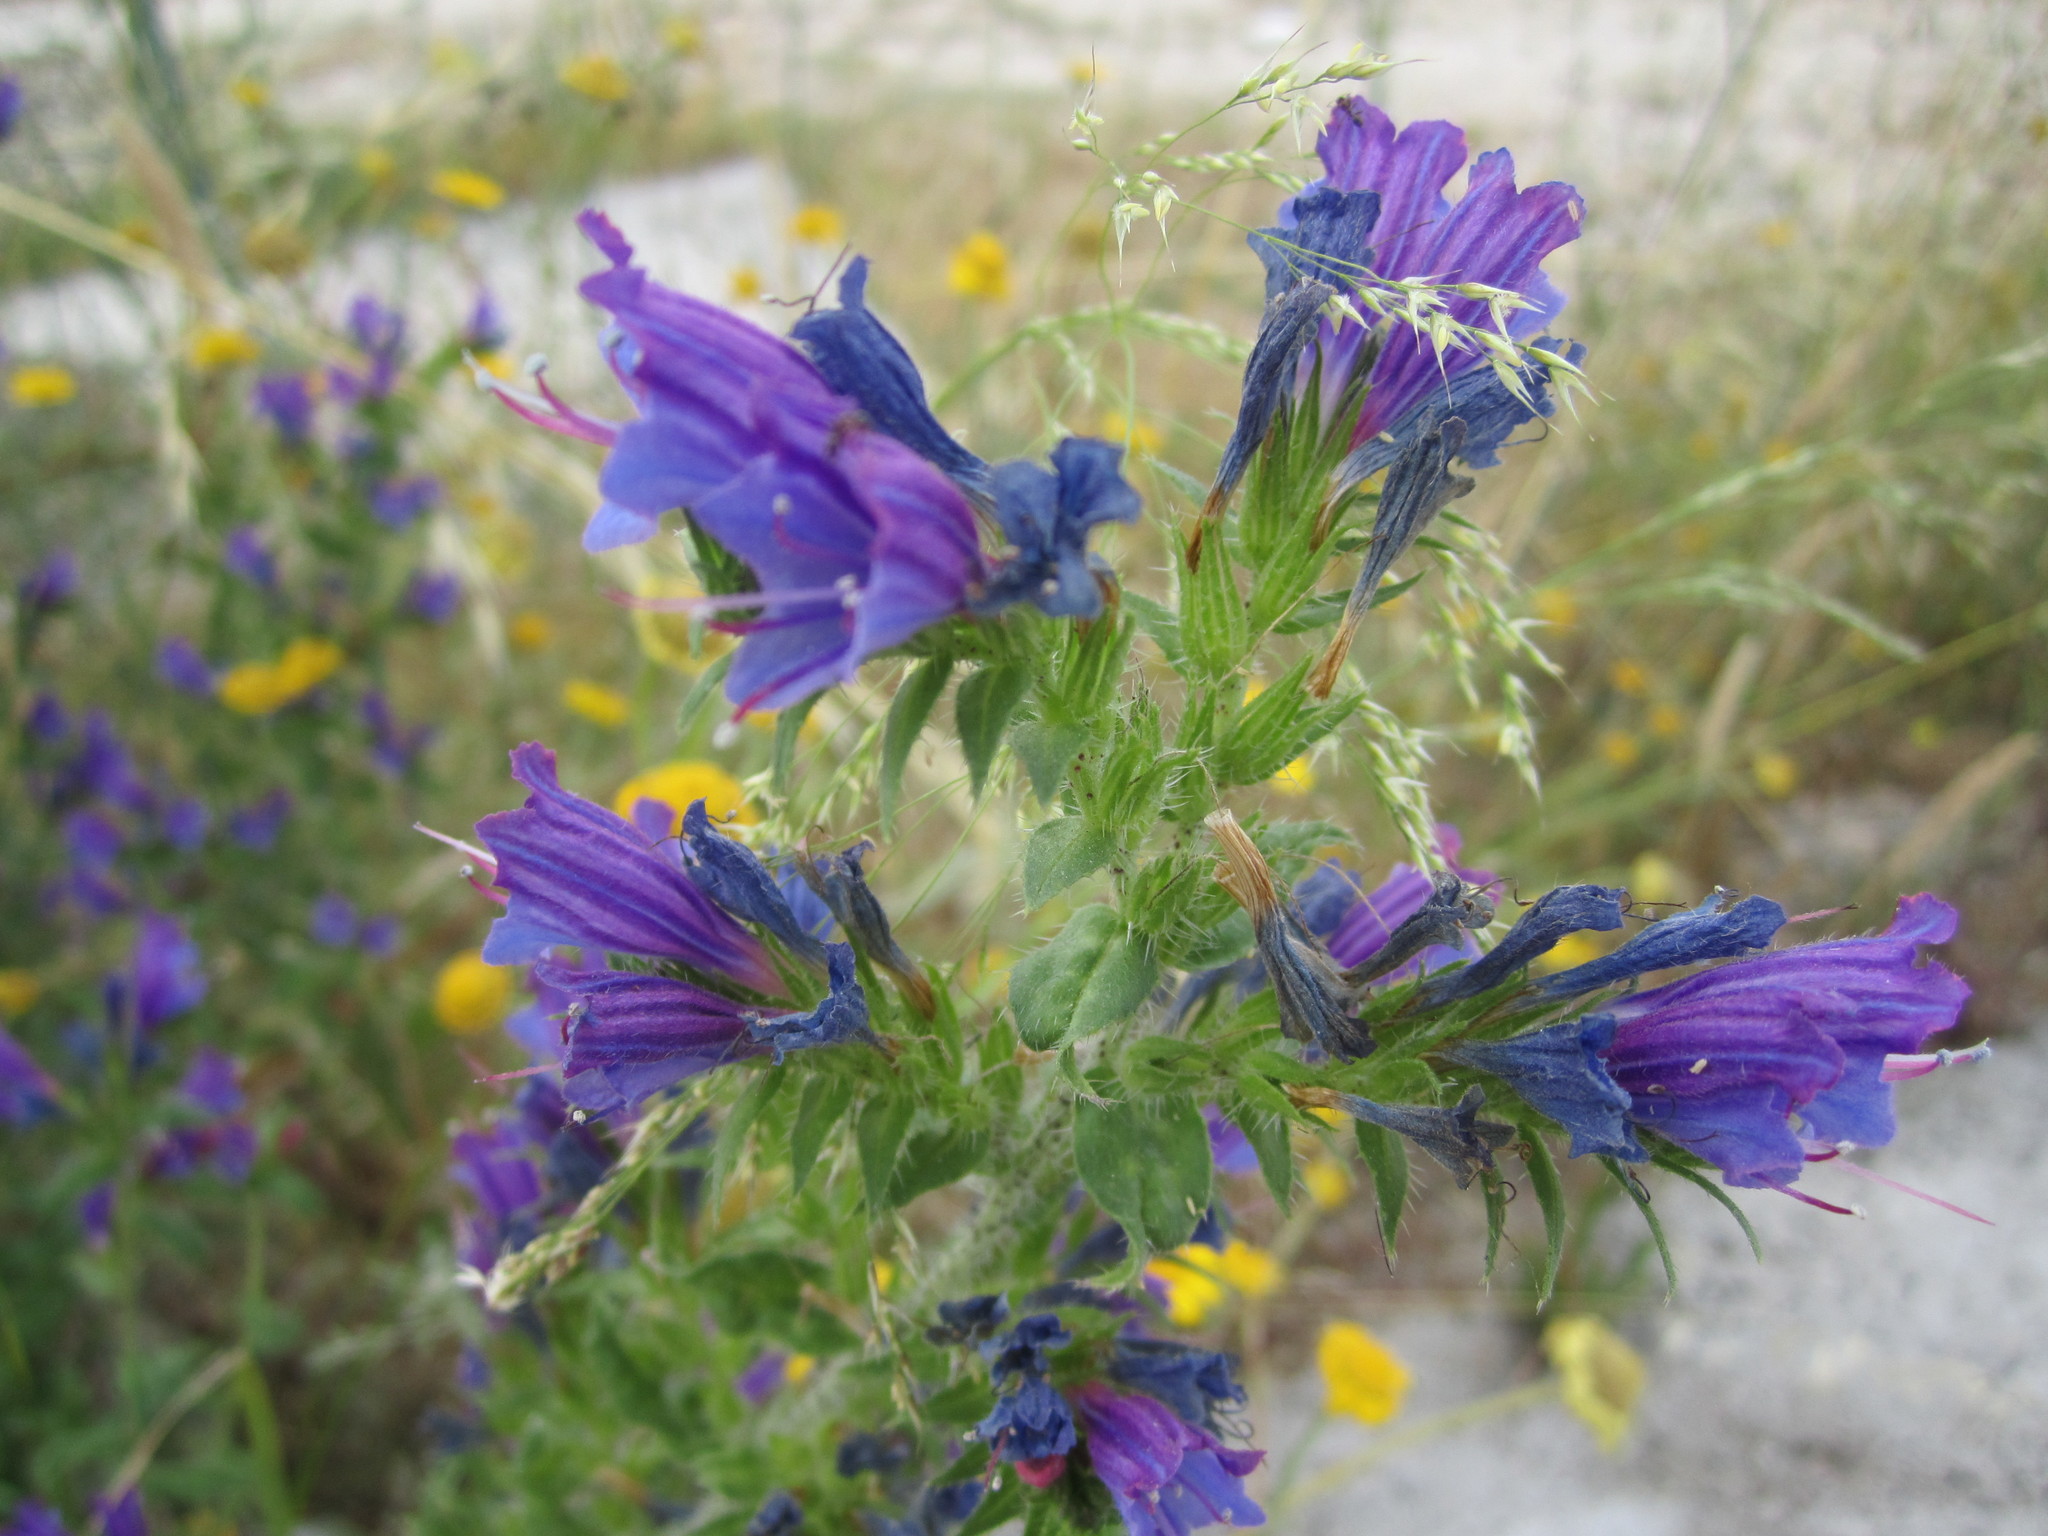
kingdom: Plantae
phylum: Tracheophyta
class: Magnoliopsida
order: Boraginales
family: Boraginaceae
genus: Echium
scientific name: Echium rosulatum
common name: Lax viper's-bugloss
